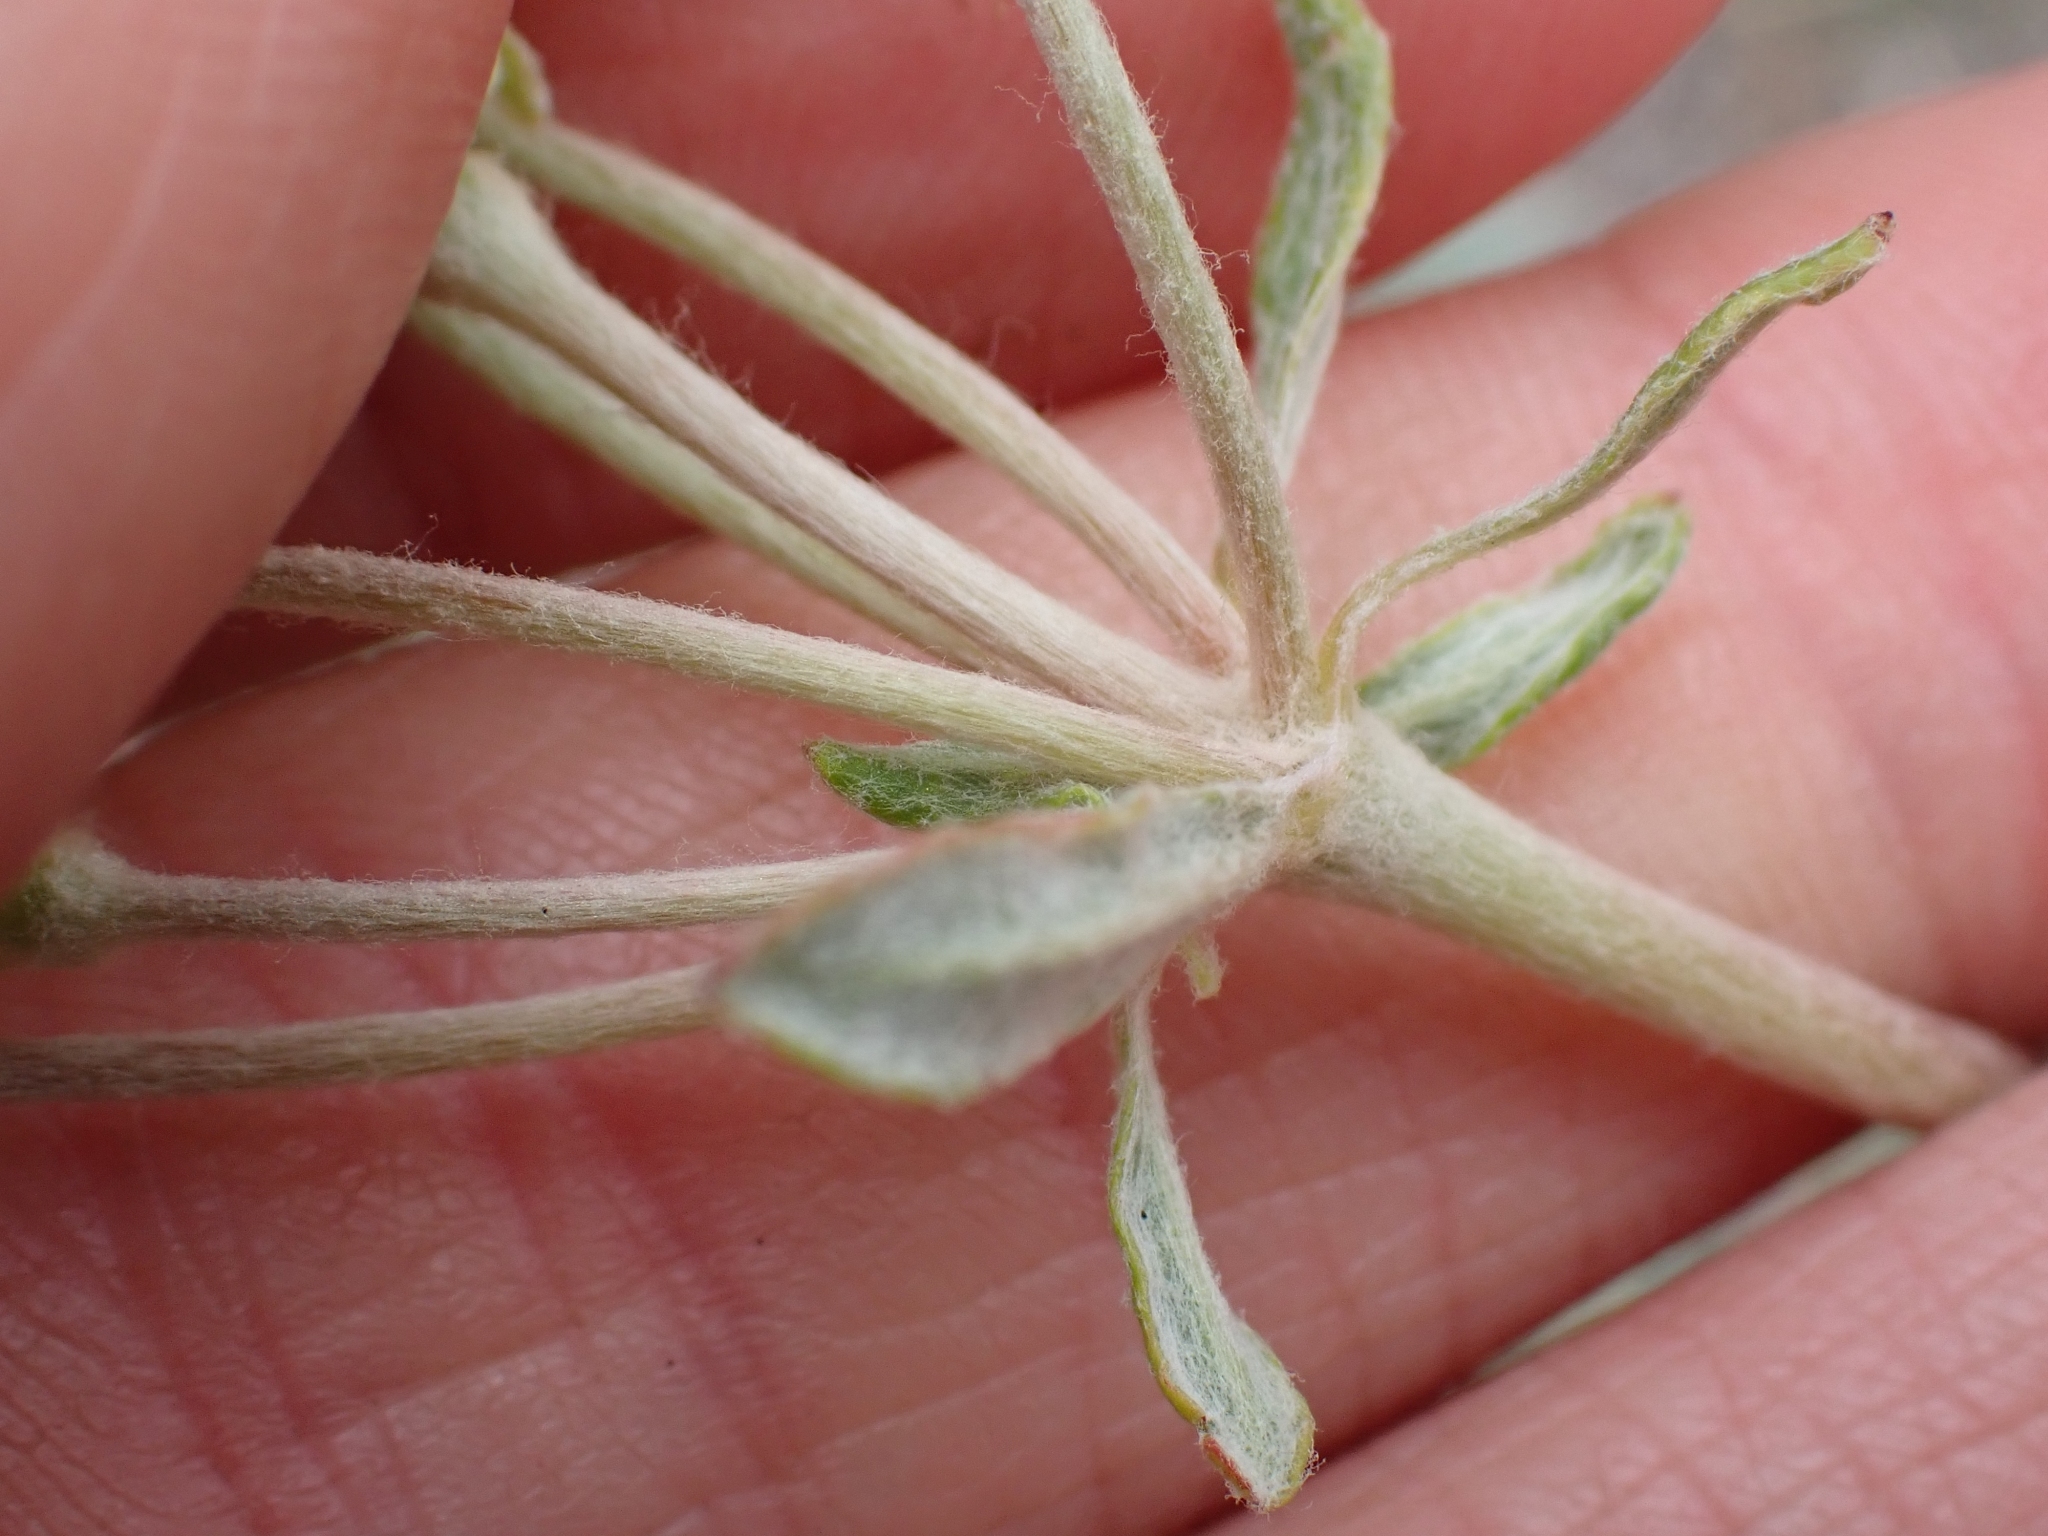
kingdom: Plantae
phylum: Tracheophyta
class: Magnoliopsida
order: Caryophyllales
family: Polygonaceae
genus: Eriogonum
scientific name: Eriogonum heracleoides
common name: Wyeth's buckwheat
